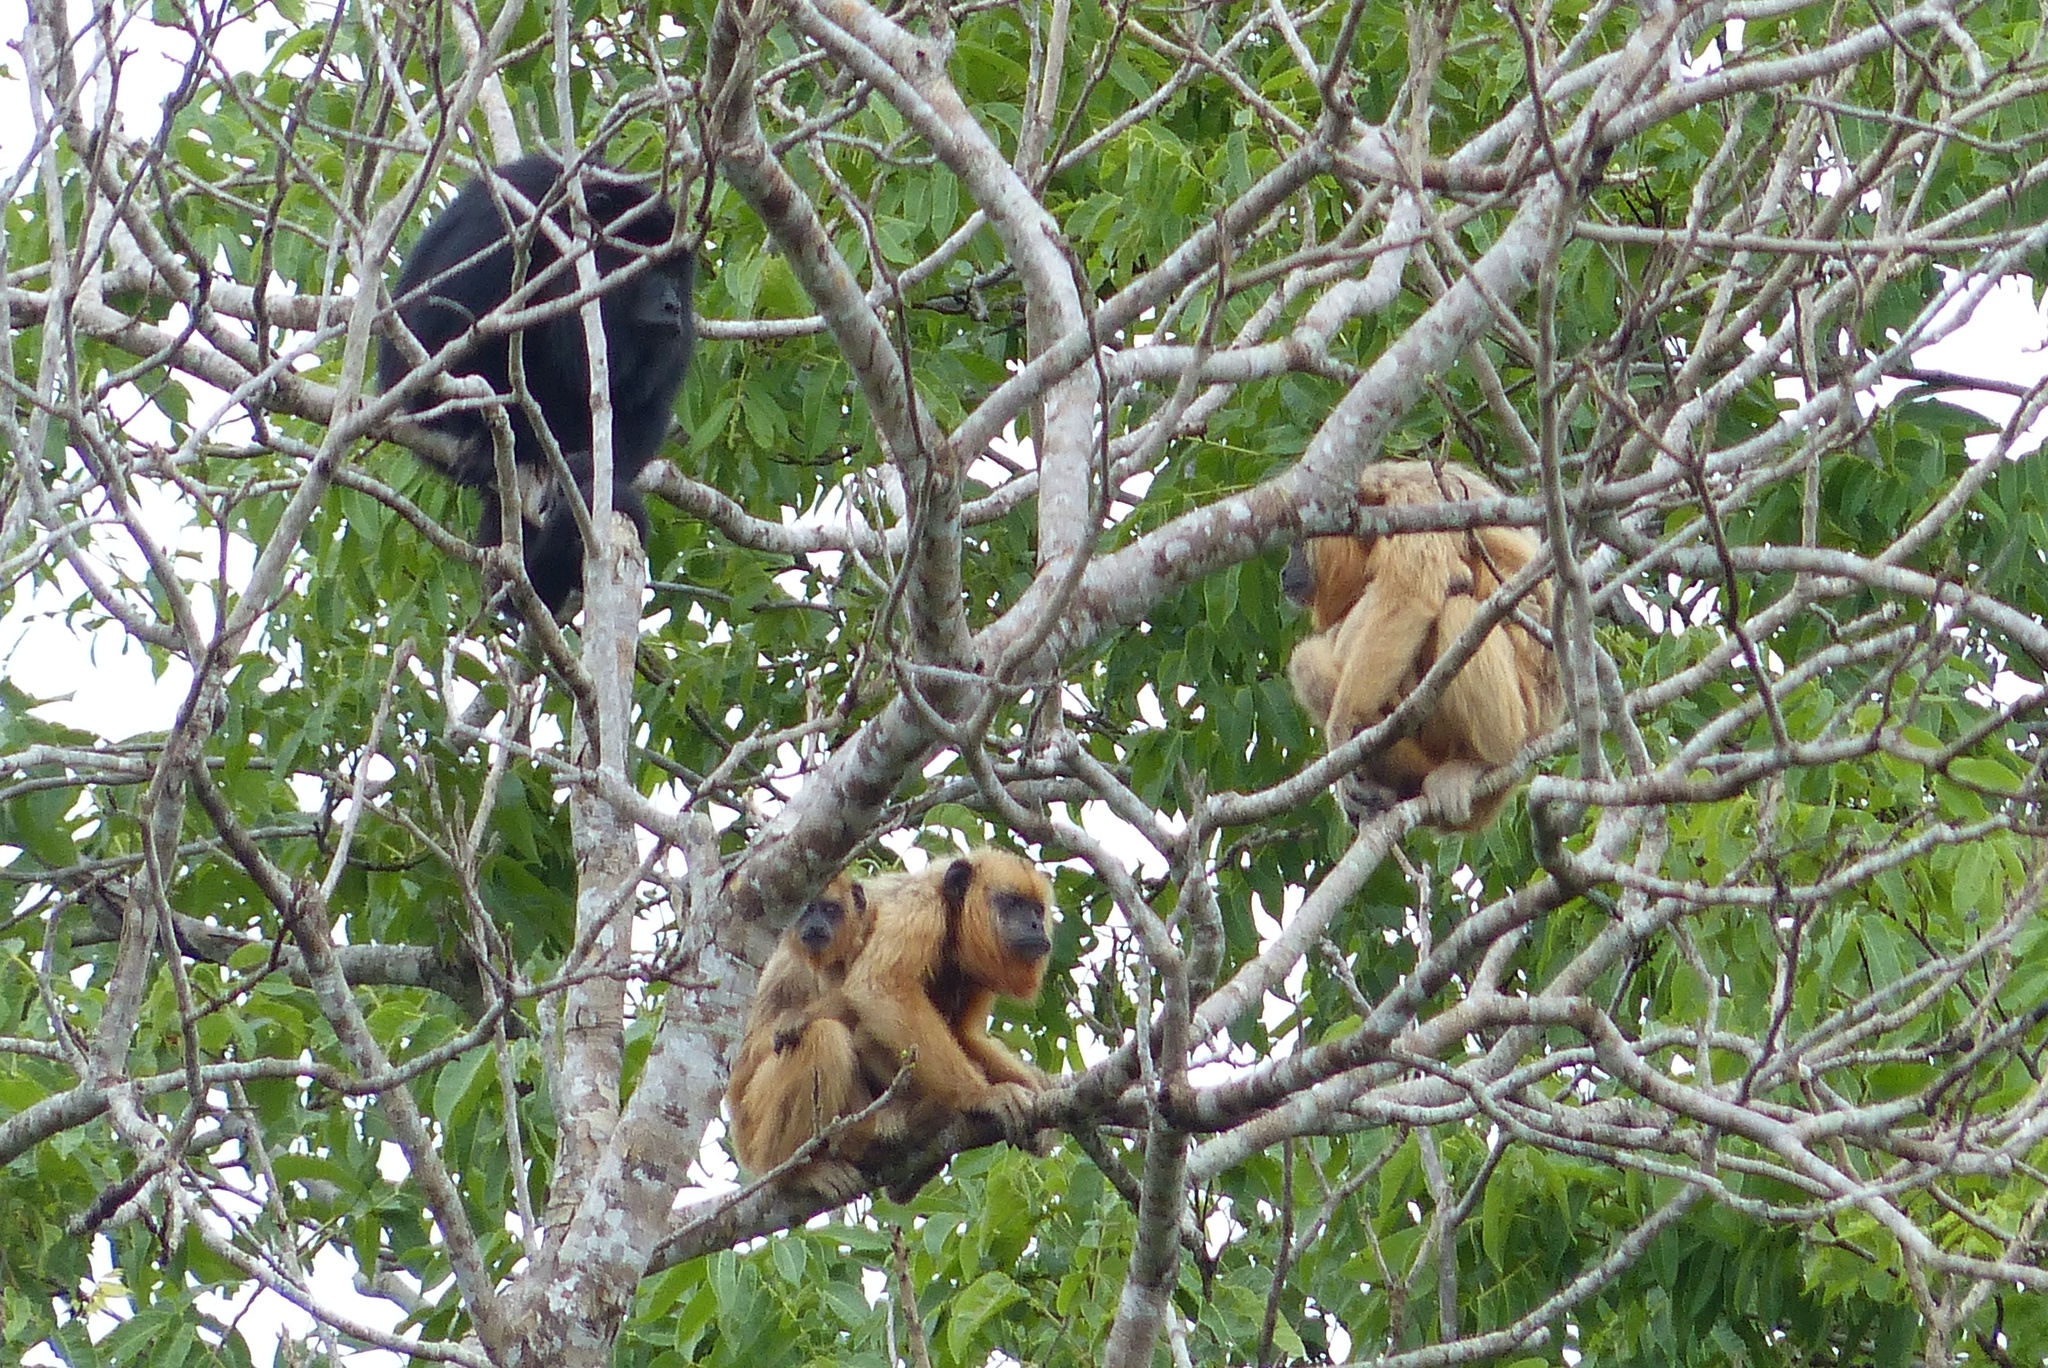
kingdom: Animalia
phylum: Chordata
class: Mammalia
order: Primates
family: Atelidae
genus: Alouatta
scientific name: Alouatta caraya
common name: Black howler
